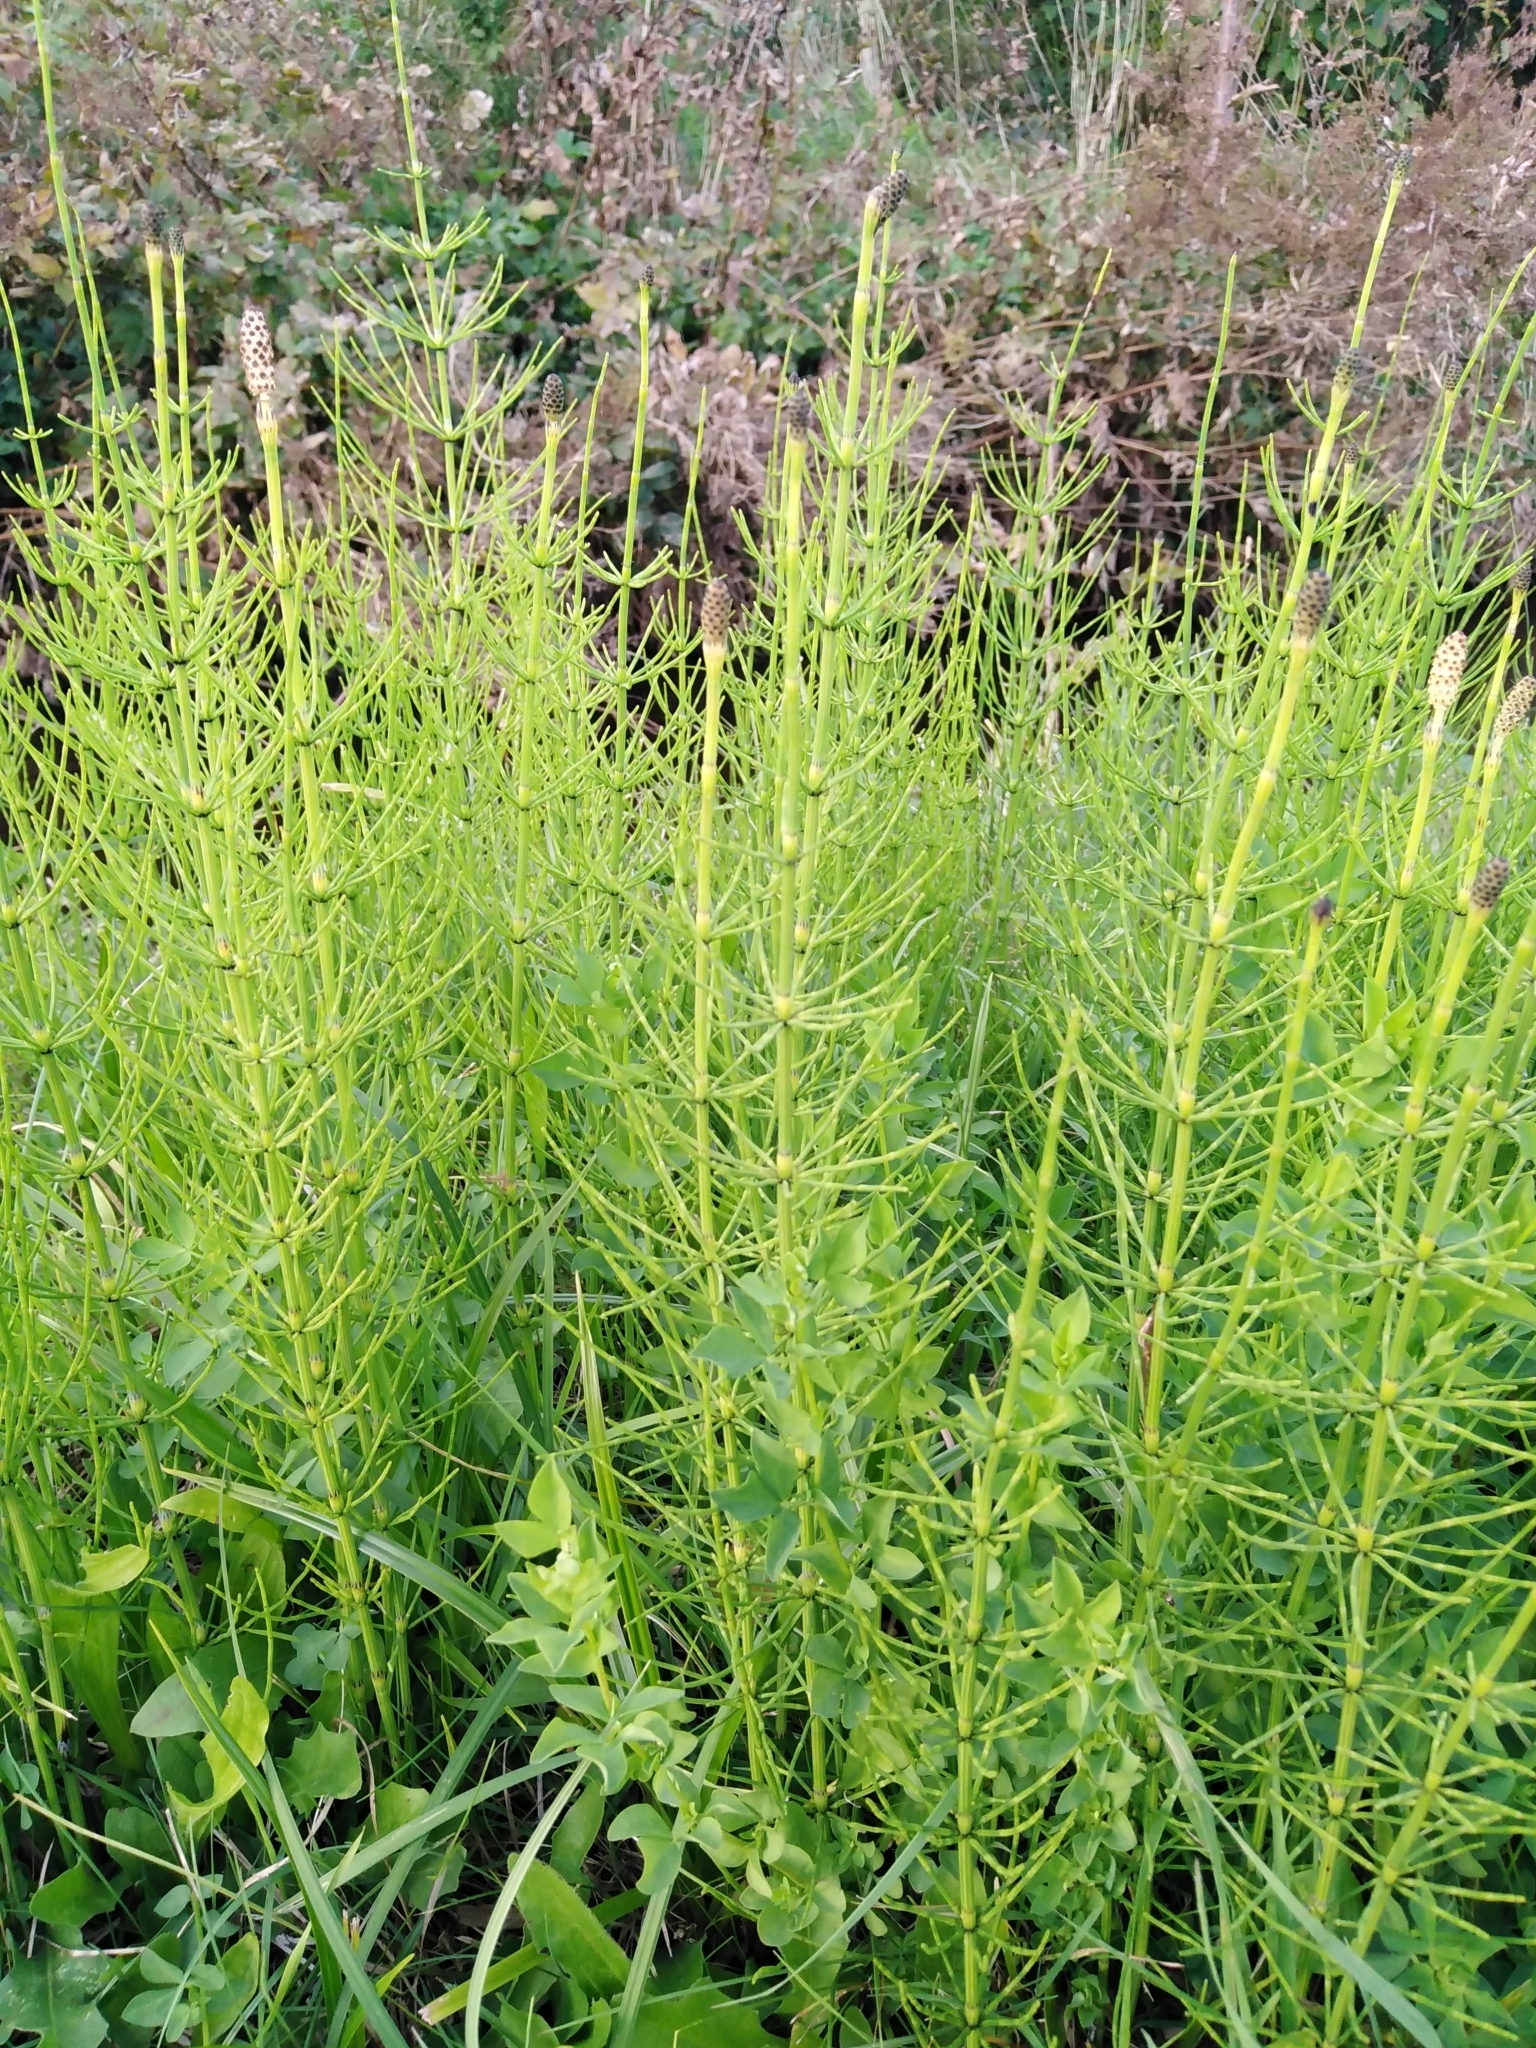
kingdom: Plantae
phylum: Tracheophyta
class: Polypodiopsida
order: Equisetales
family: Equisetaceae
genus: Equisetum
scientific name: Equisetum palustre
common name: Marsh horsetail
